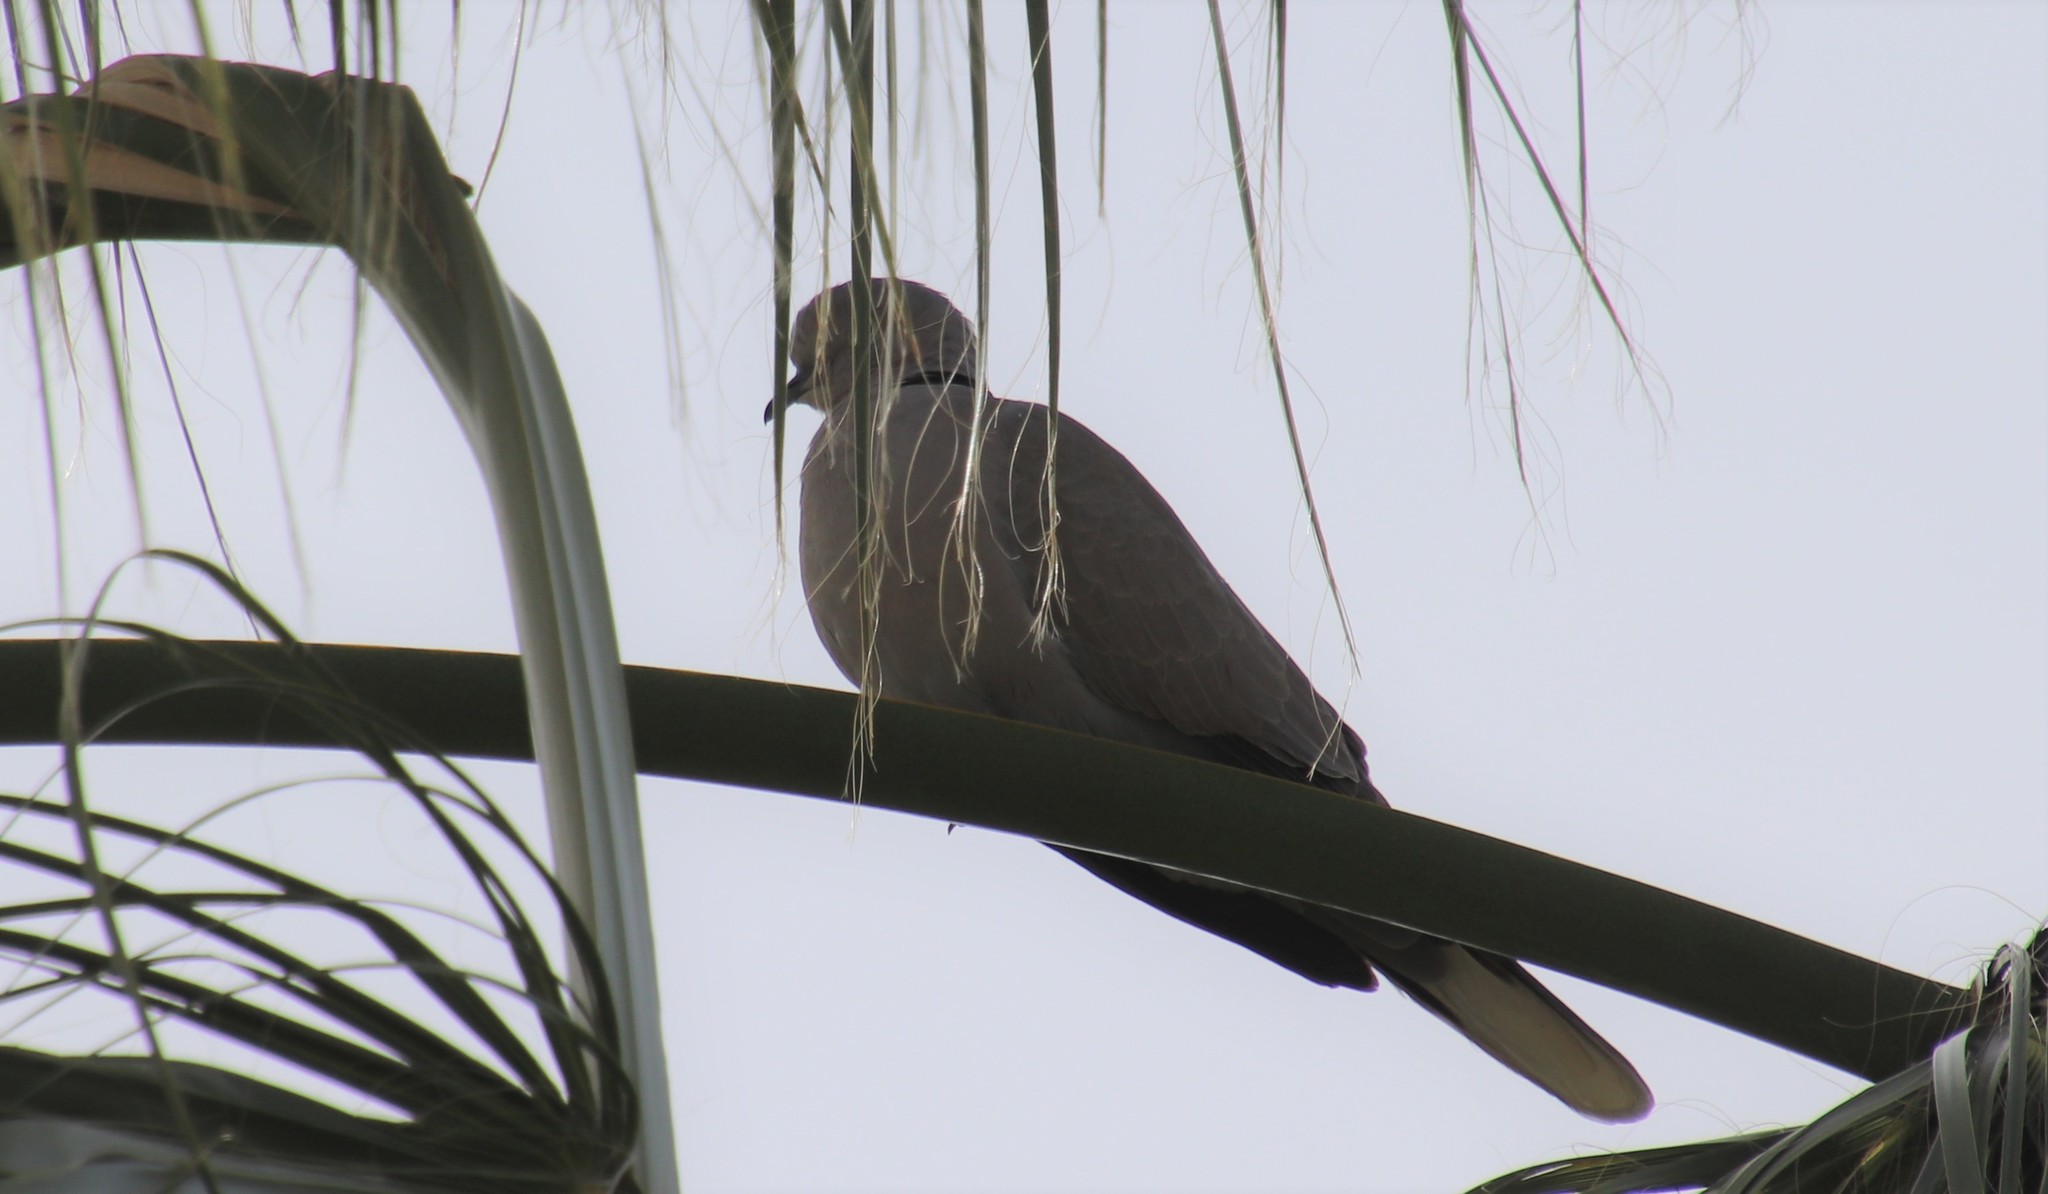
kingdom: Animalia
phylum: Chordata
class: Aves
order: Columbiformes
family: Columbidae
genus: Streptopelia
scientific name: Streptopelia decaocto
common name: Eurasian collared dove
